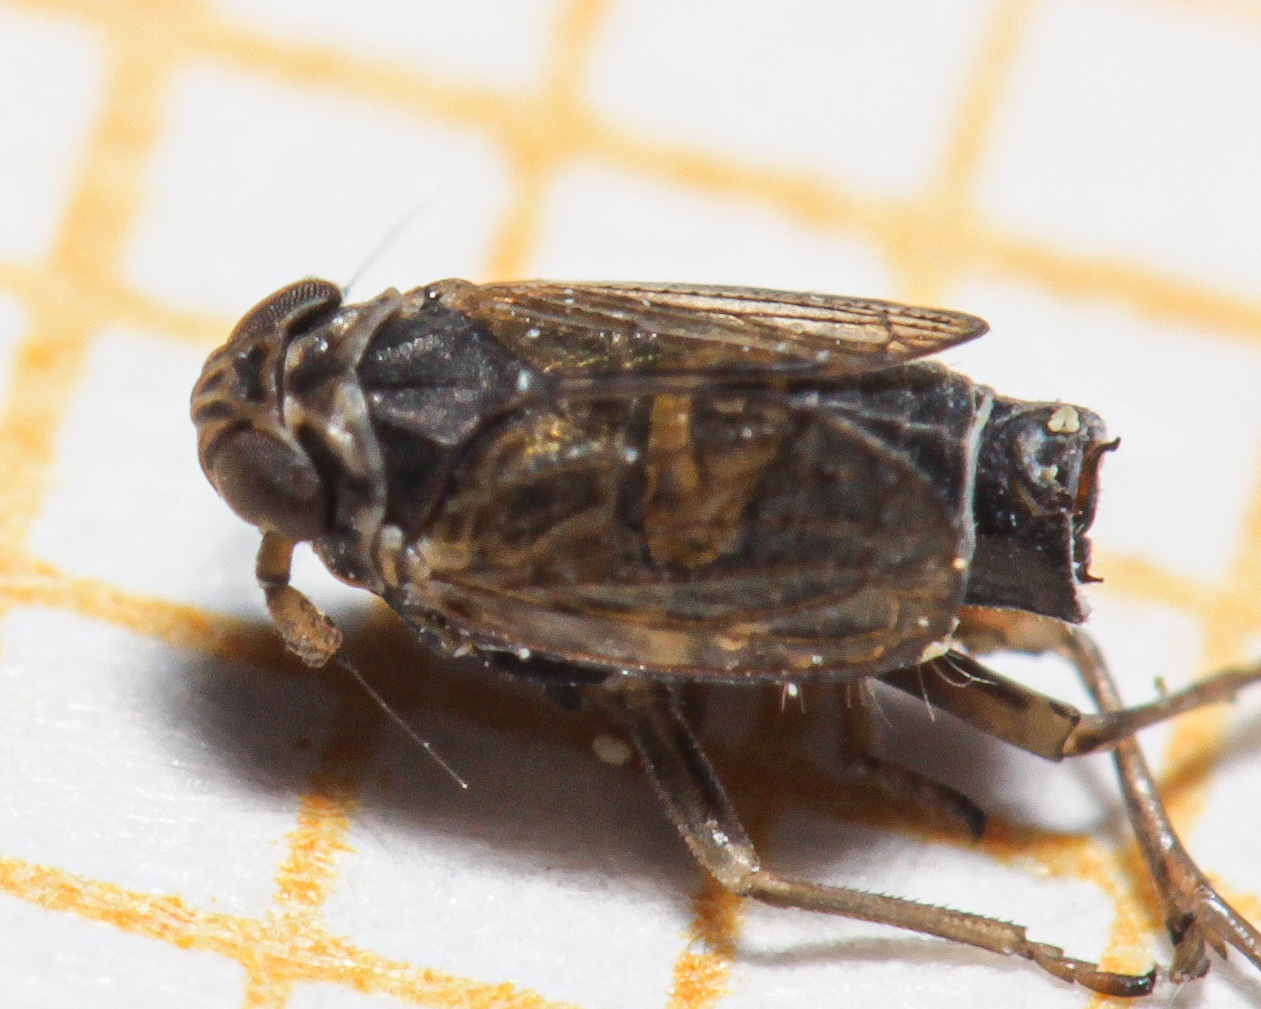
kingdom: Animalia
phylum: Arthropoda
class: Insecta
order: Hemiptera
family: Delphacidae
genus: Javesella
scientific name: Javesella dubia
